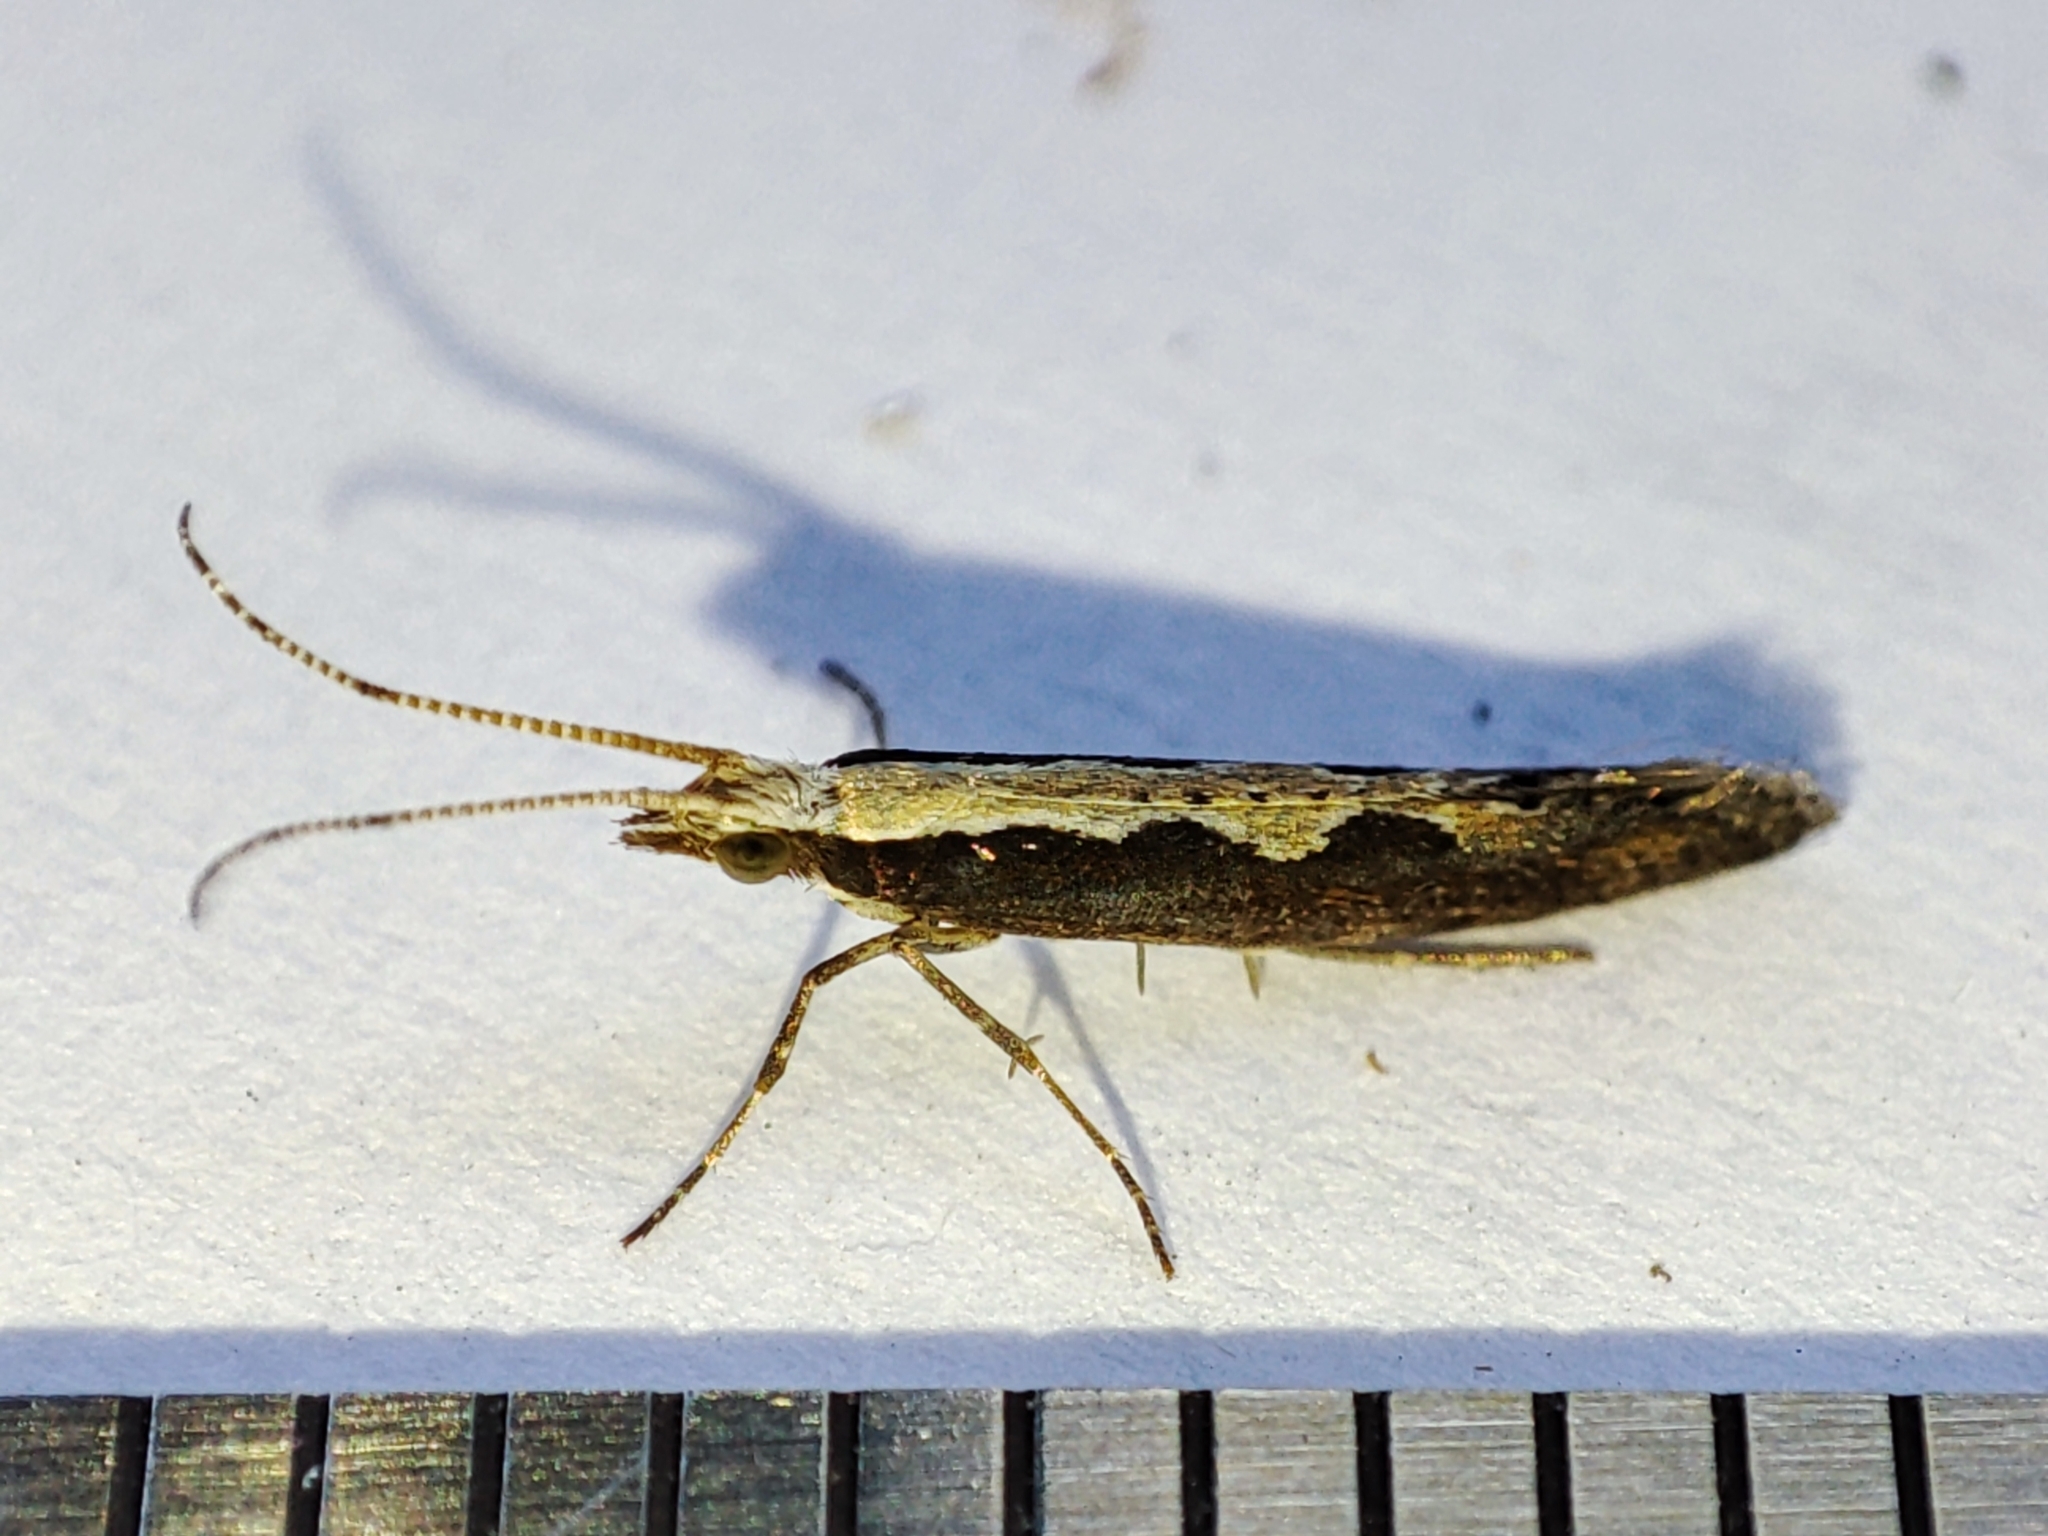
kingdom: Animalia
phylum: Arthropoda
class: Insecta
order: Lepidoptera
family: Plutellidae
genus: Plutella
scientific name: Plutella xylostella
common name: Diamond-back moth
